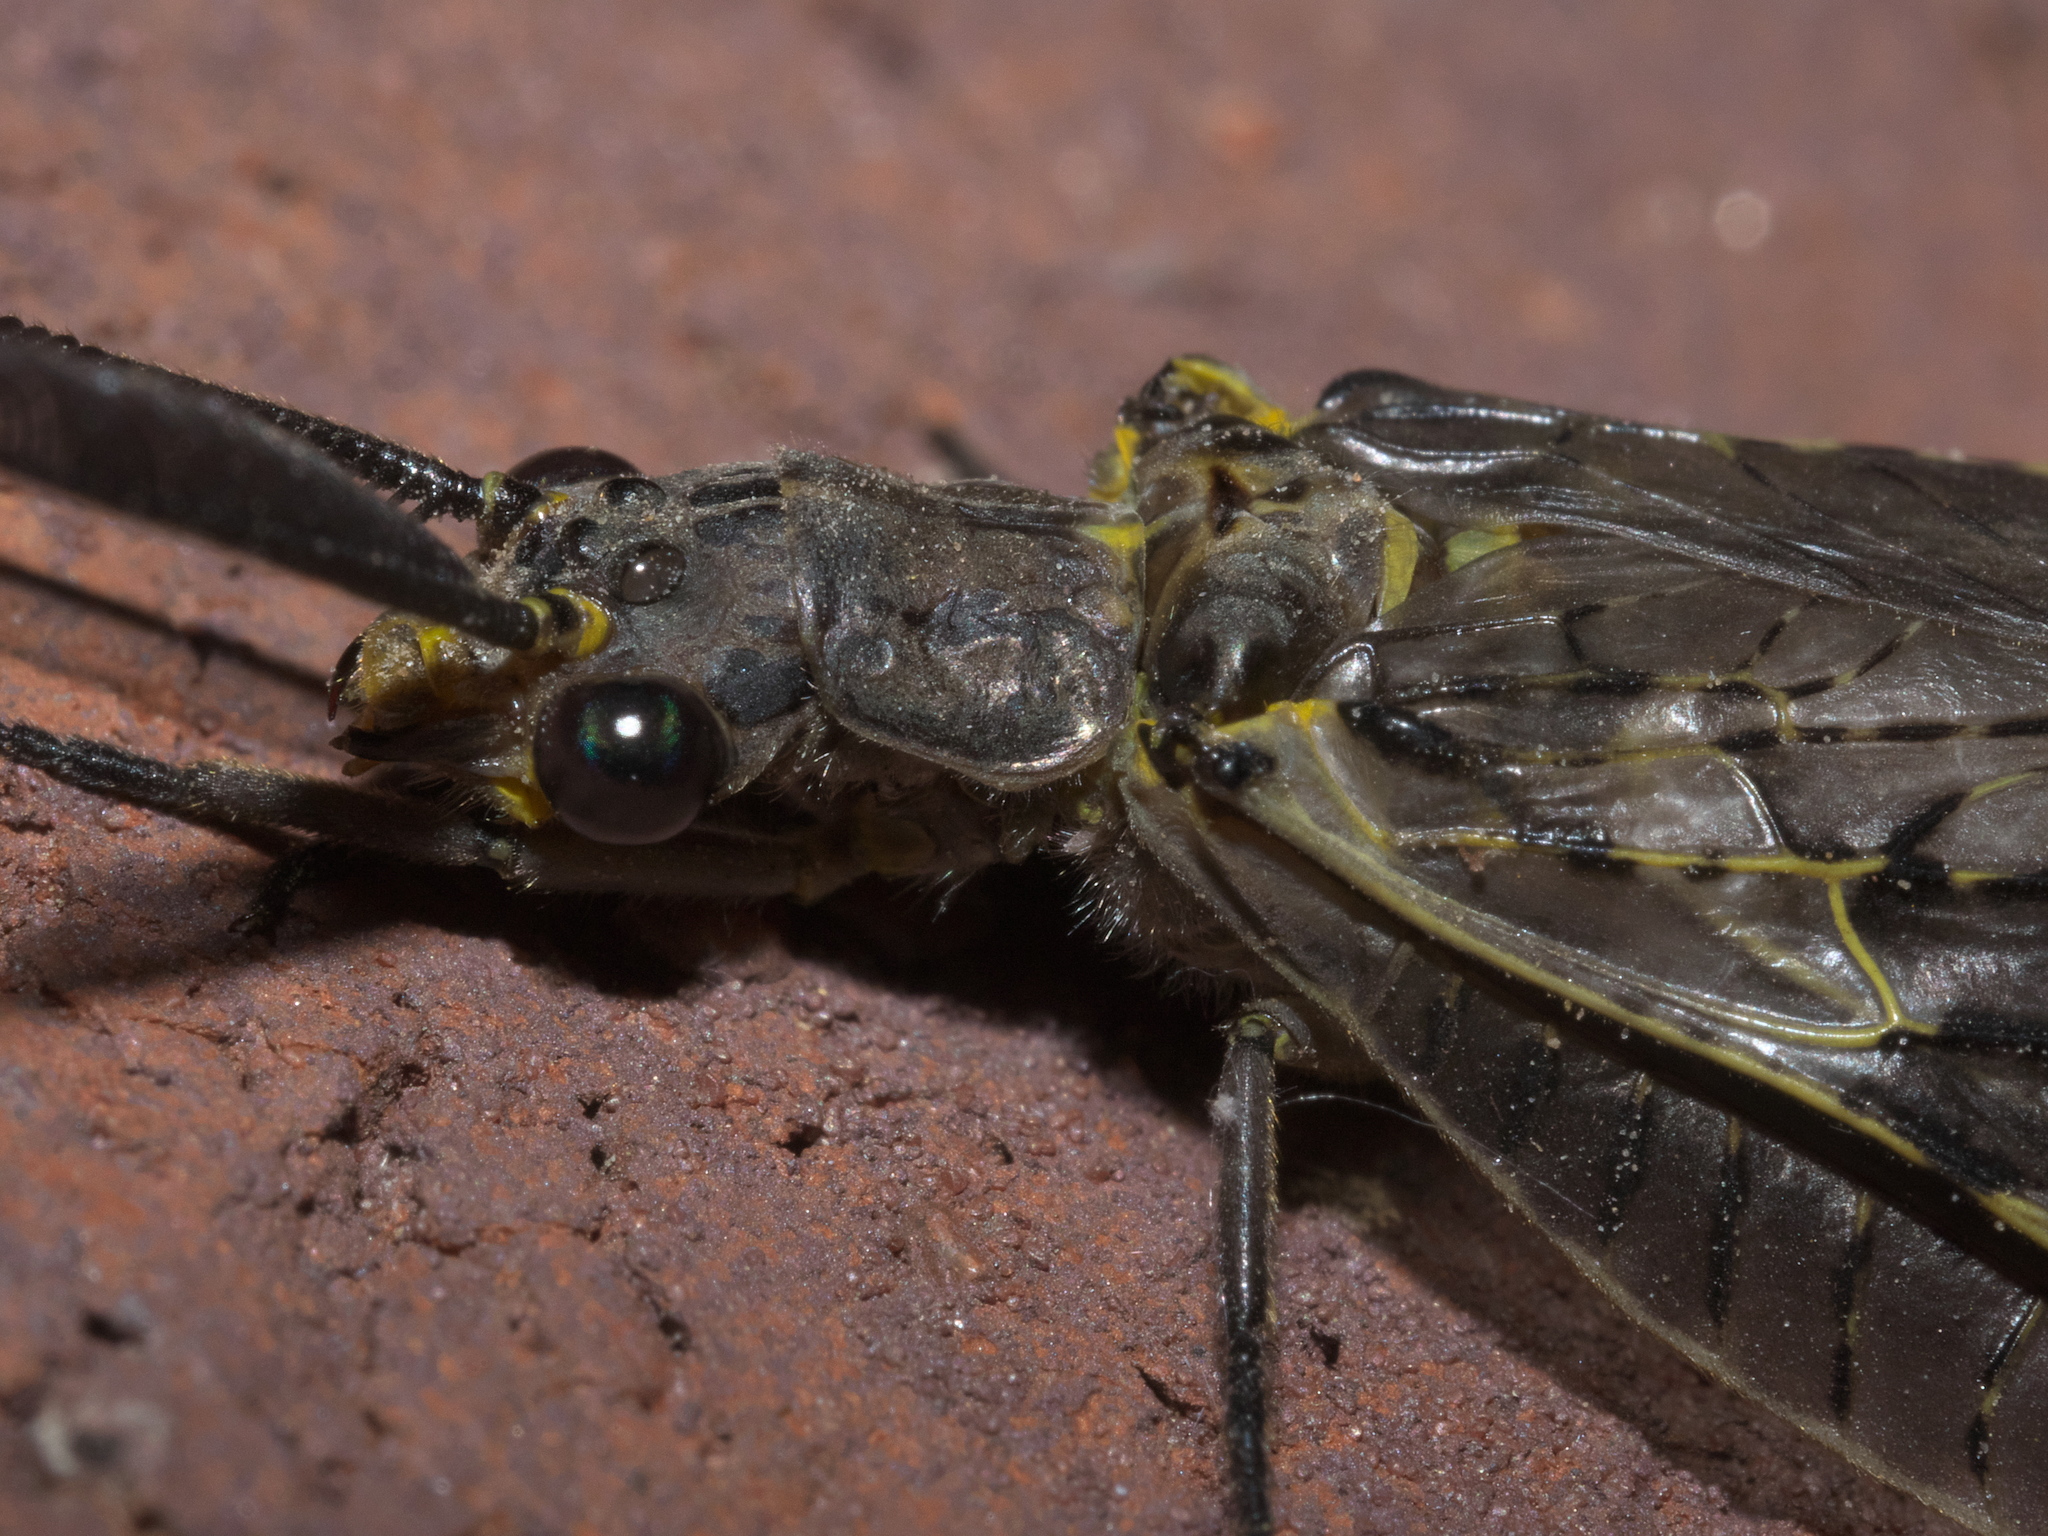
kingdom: Animalia
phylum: Arthropoda
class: Insecta
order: Megaloptera
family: Corydalidae
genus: Chauliodes
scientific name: Chauliodes rastricornis
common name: Spring fishfly
